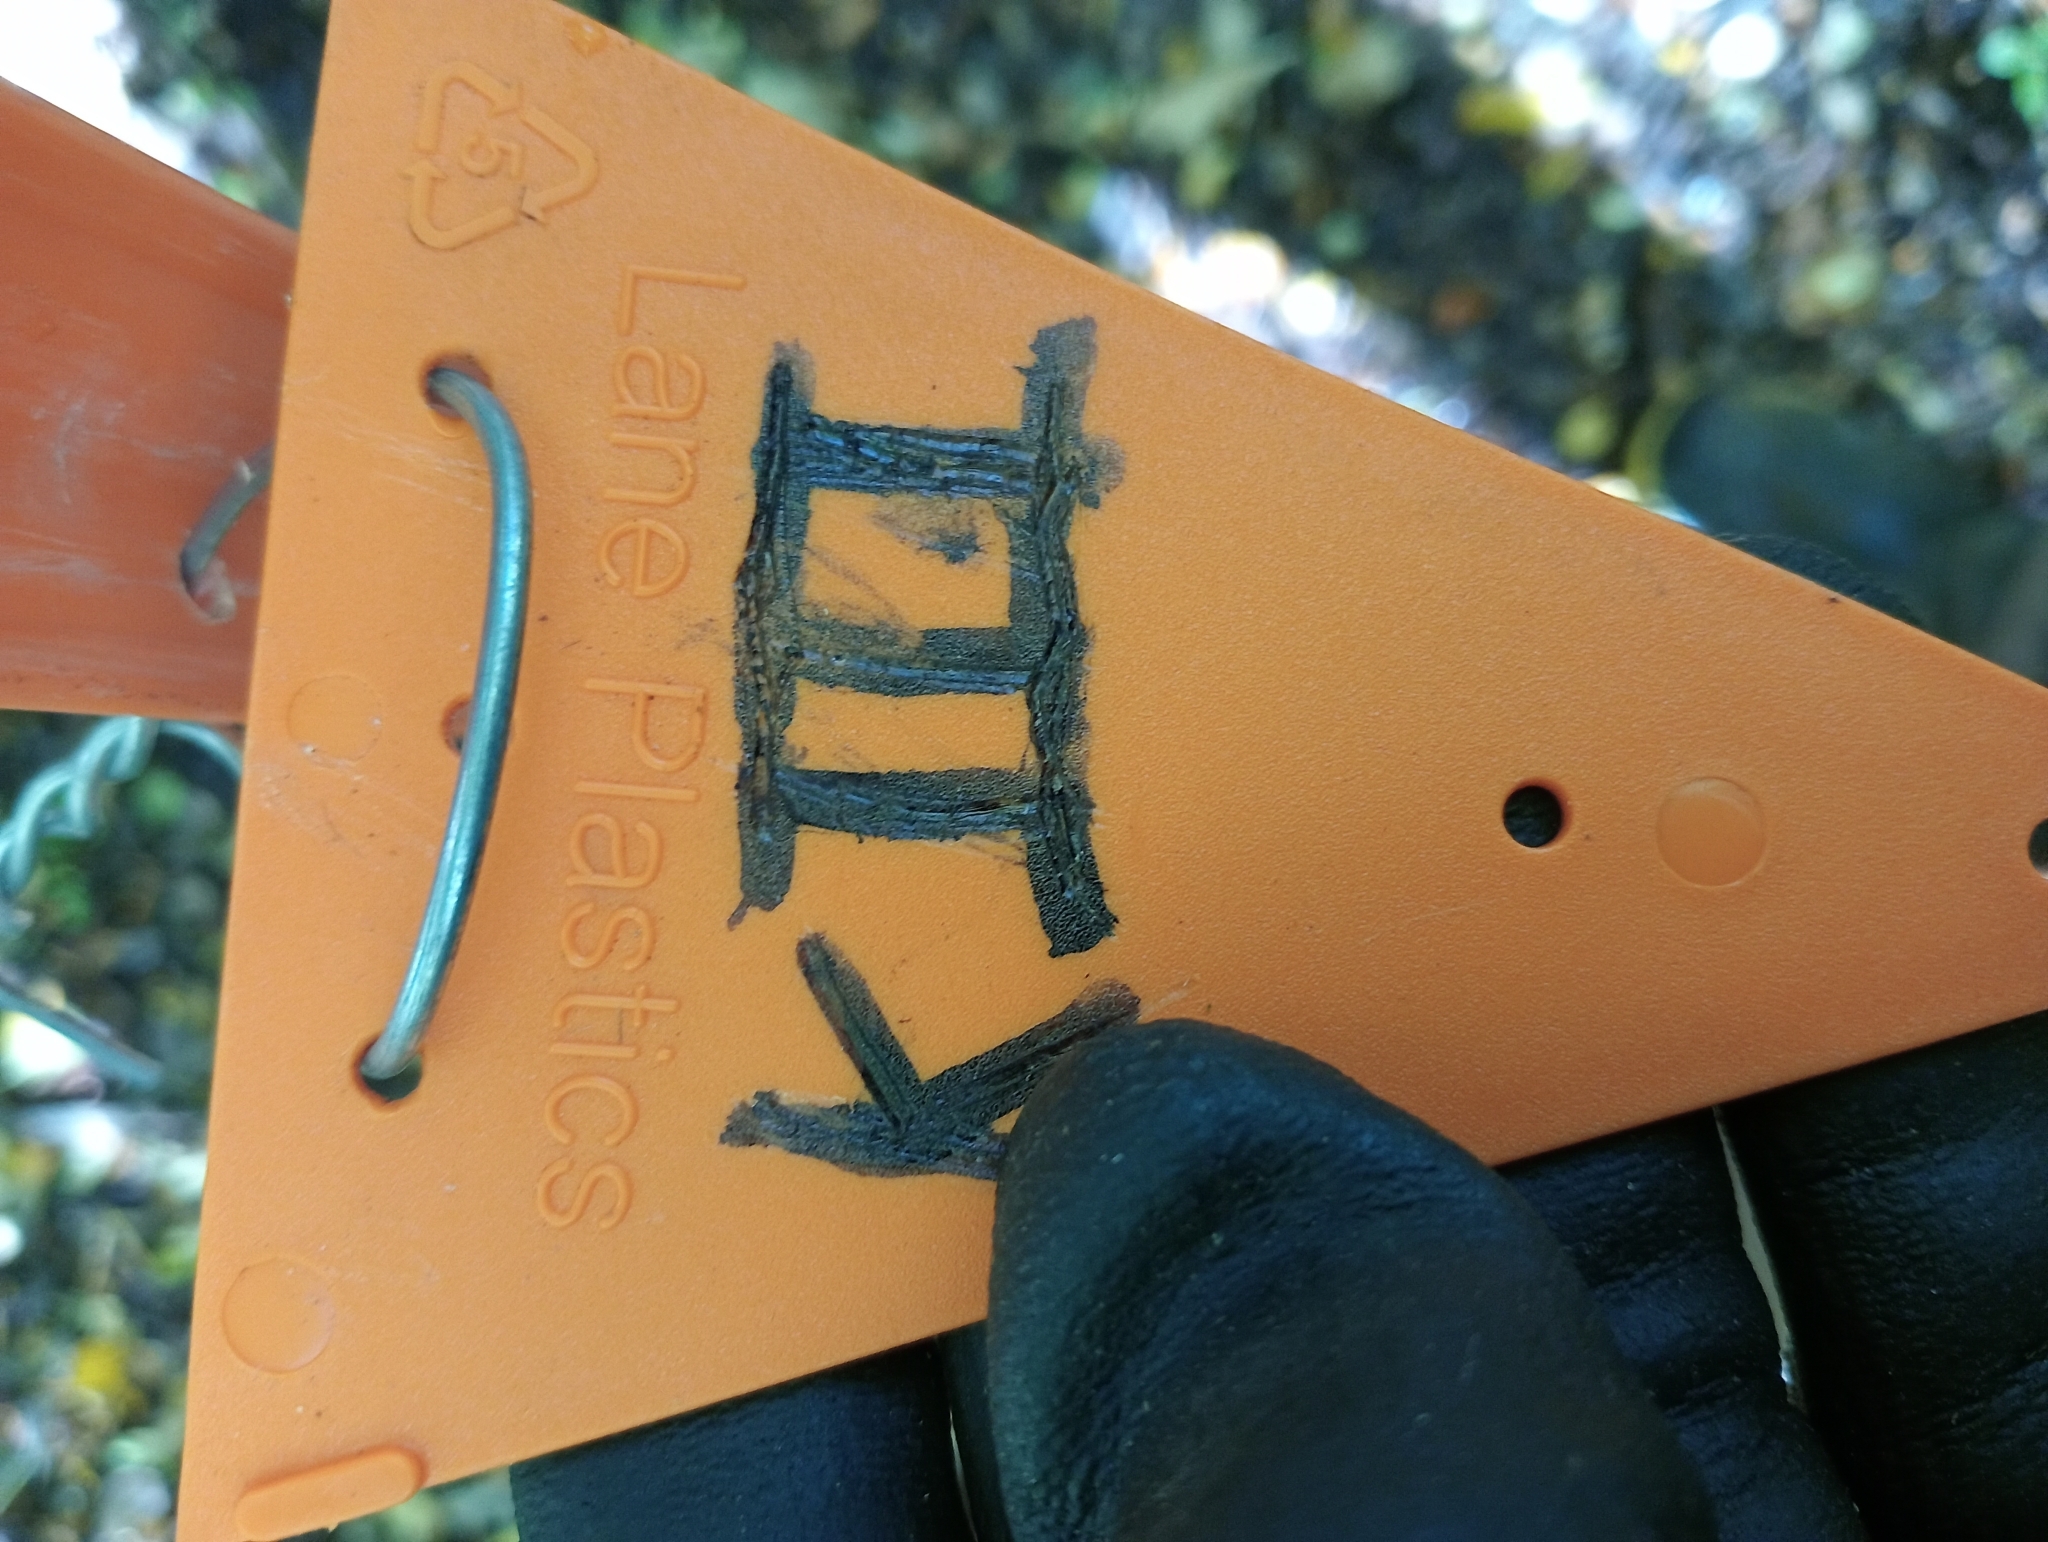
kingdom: Plantae
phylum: Tracheophyta
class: Pinopsida
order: Pinales
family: Podocarpaceae
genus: Dacrycarpus
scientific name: Dacrycarpus dacrydioides
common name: White pine
